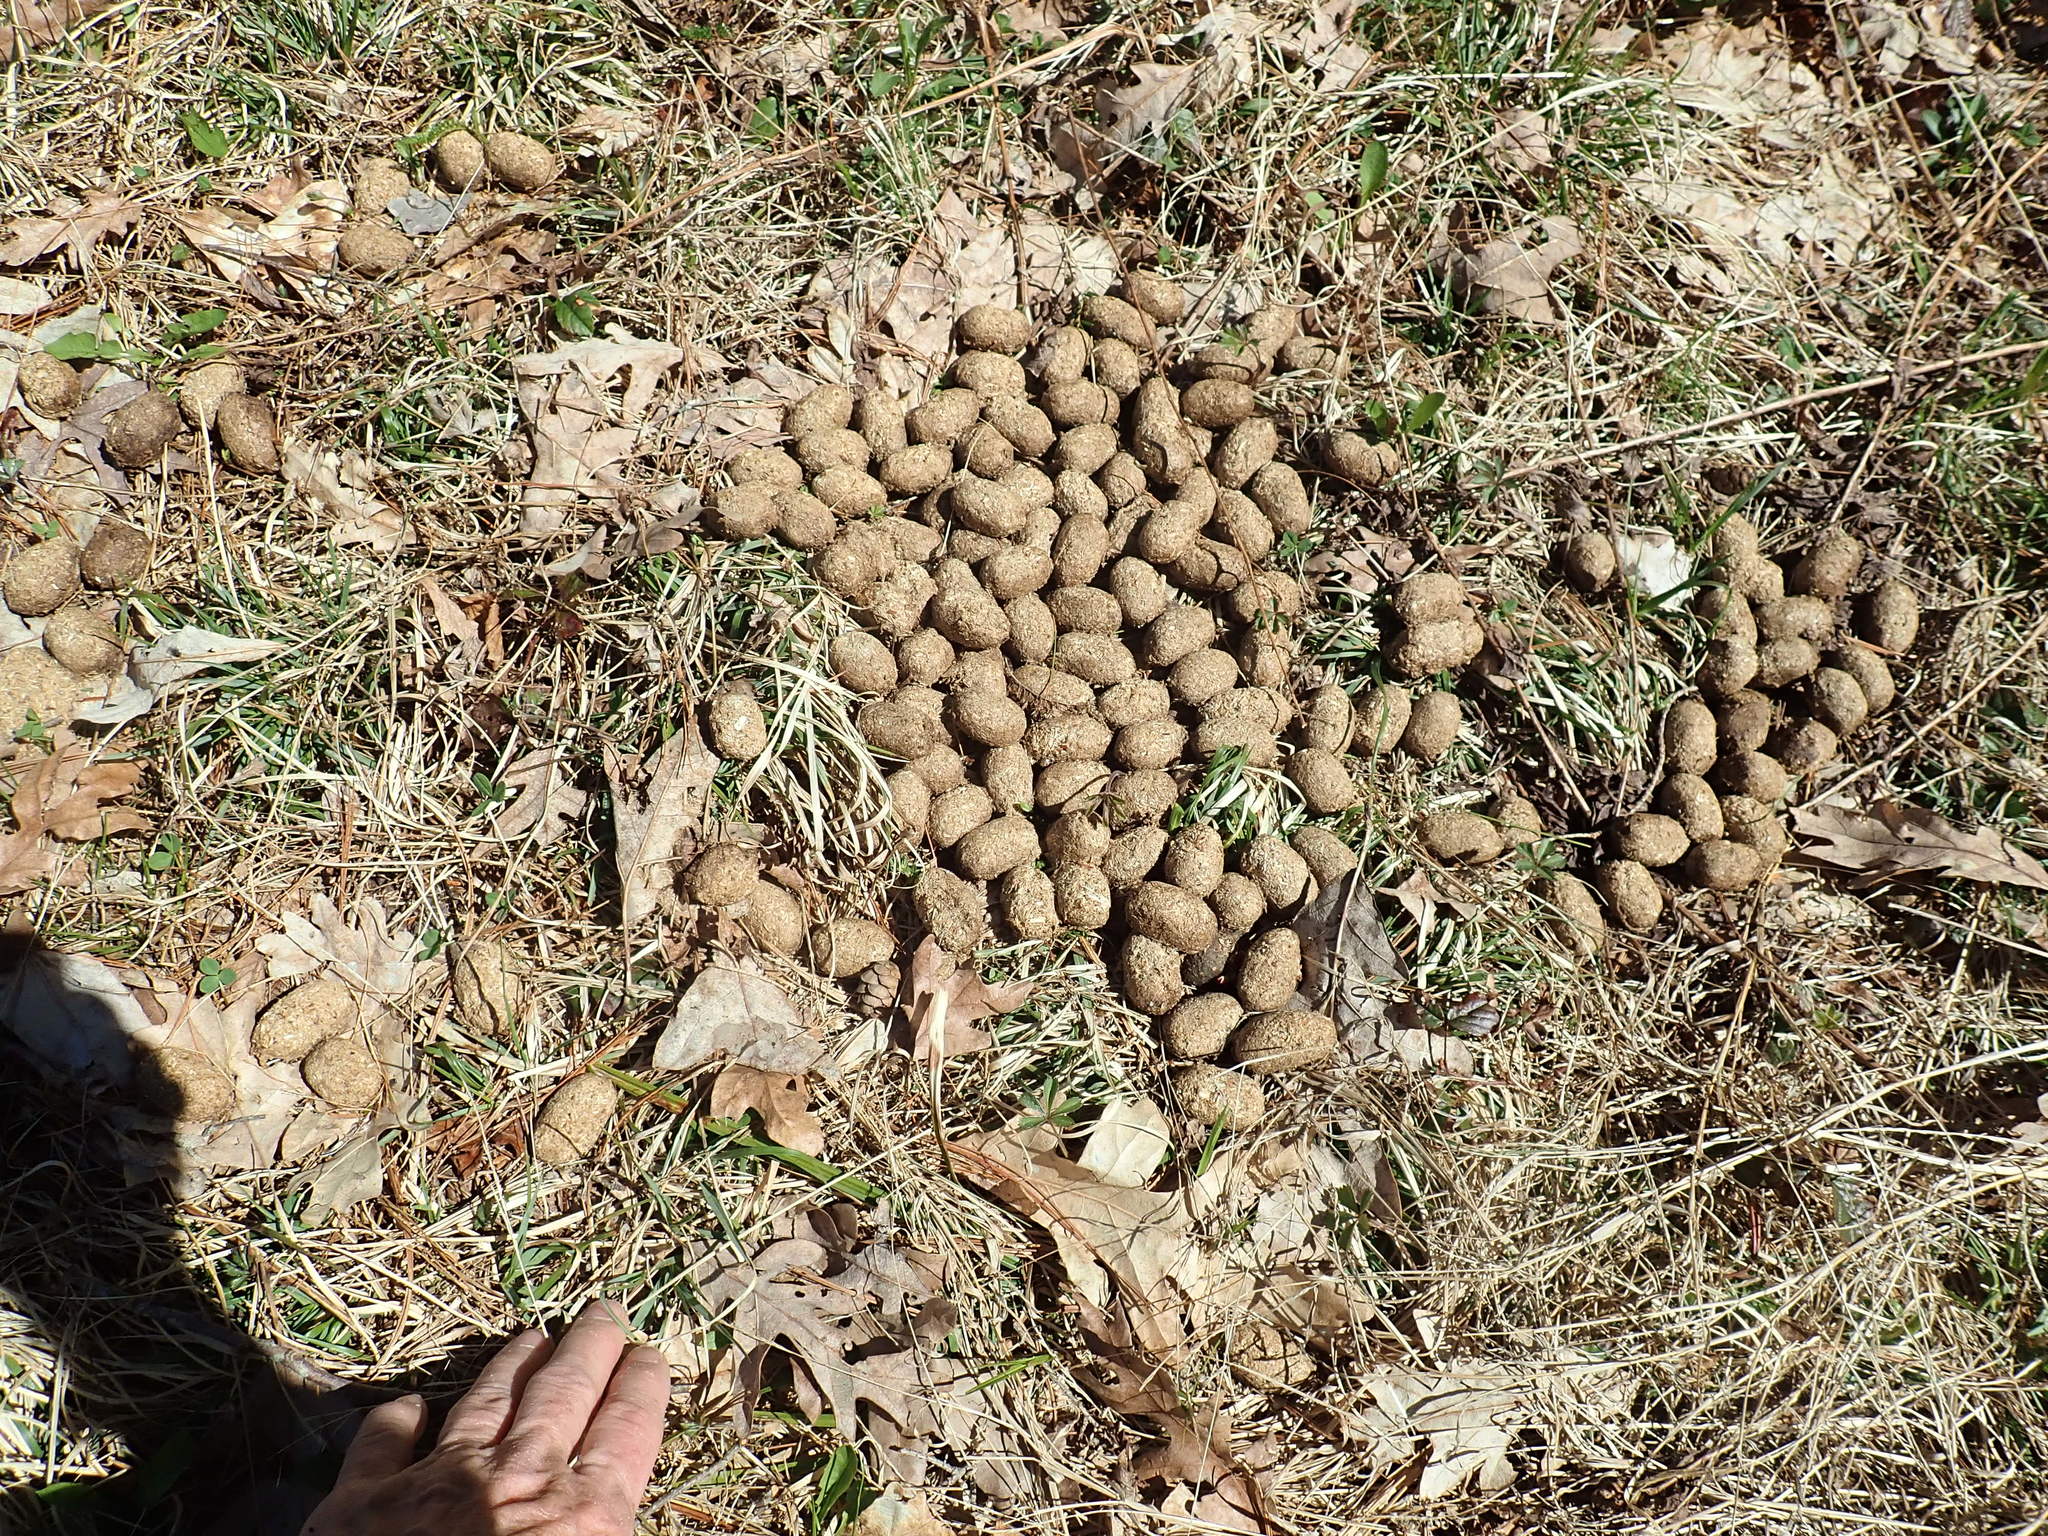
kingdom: Animalia
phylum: Chordata
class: Mammalia
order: Artiodactyla
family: Cervidae
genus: Alces
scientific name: Alces alces
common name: Moose
